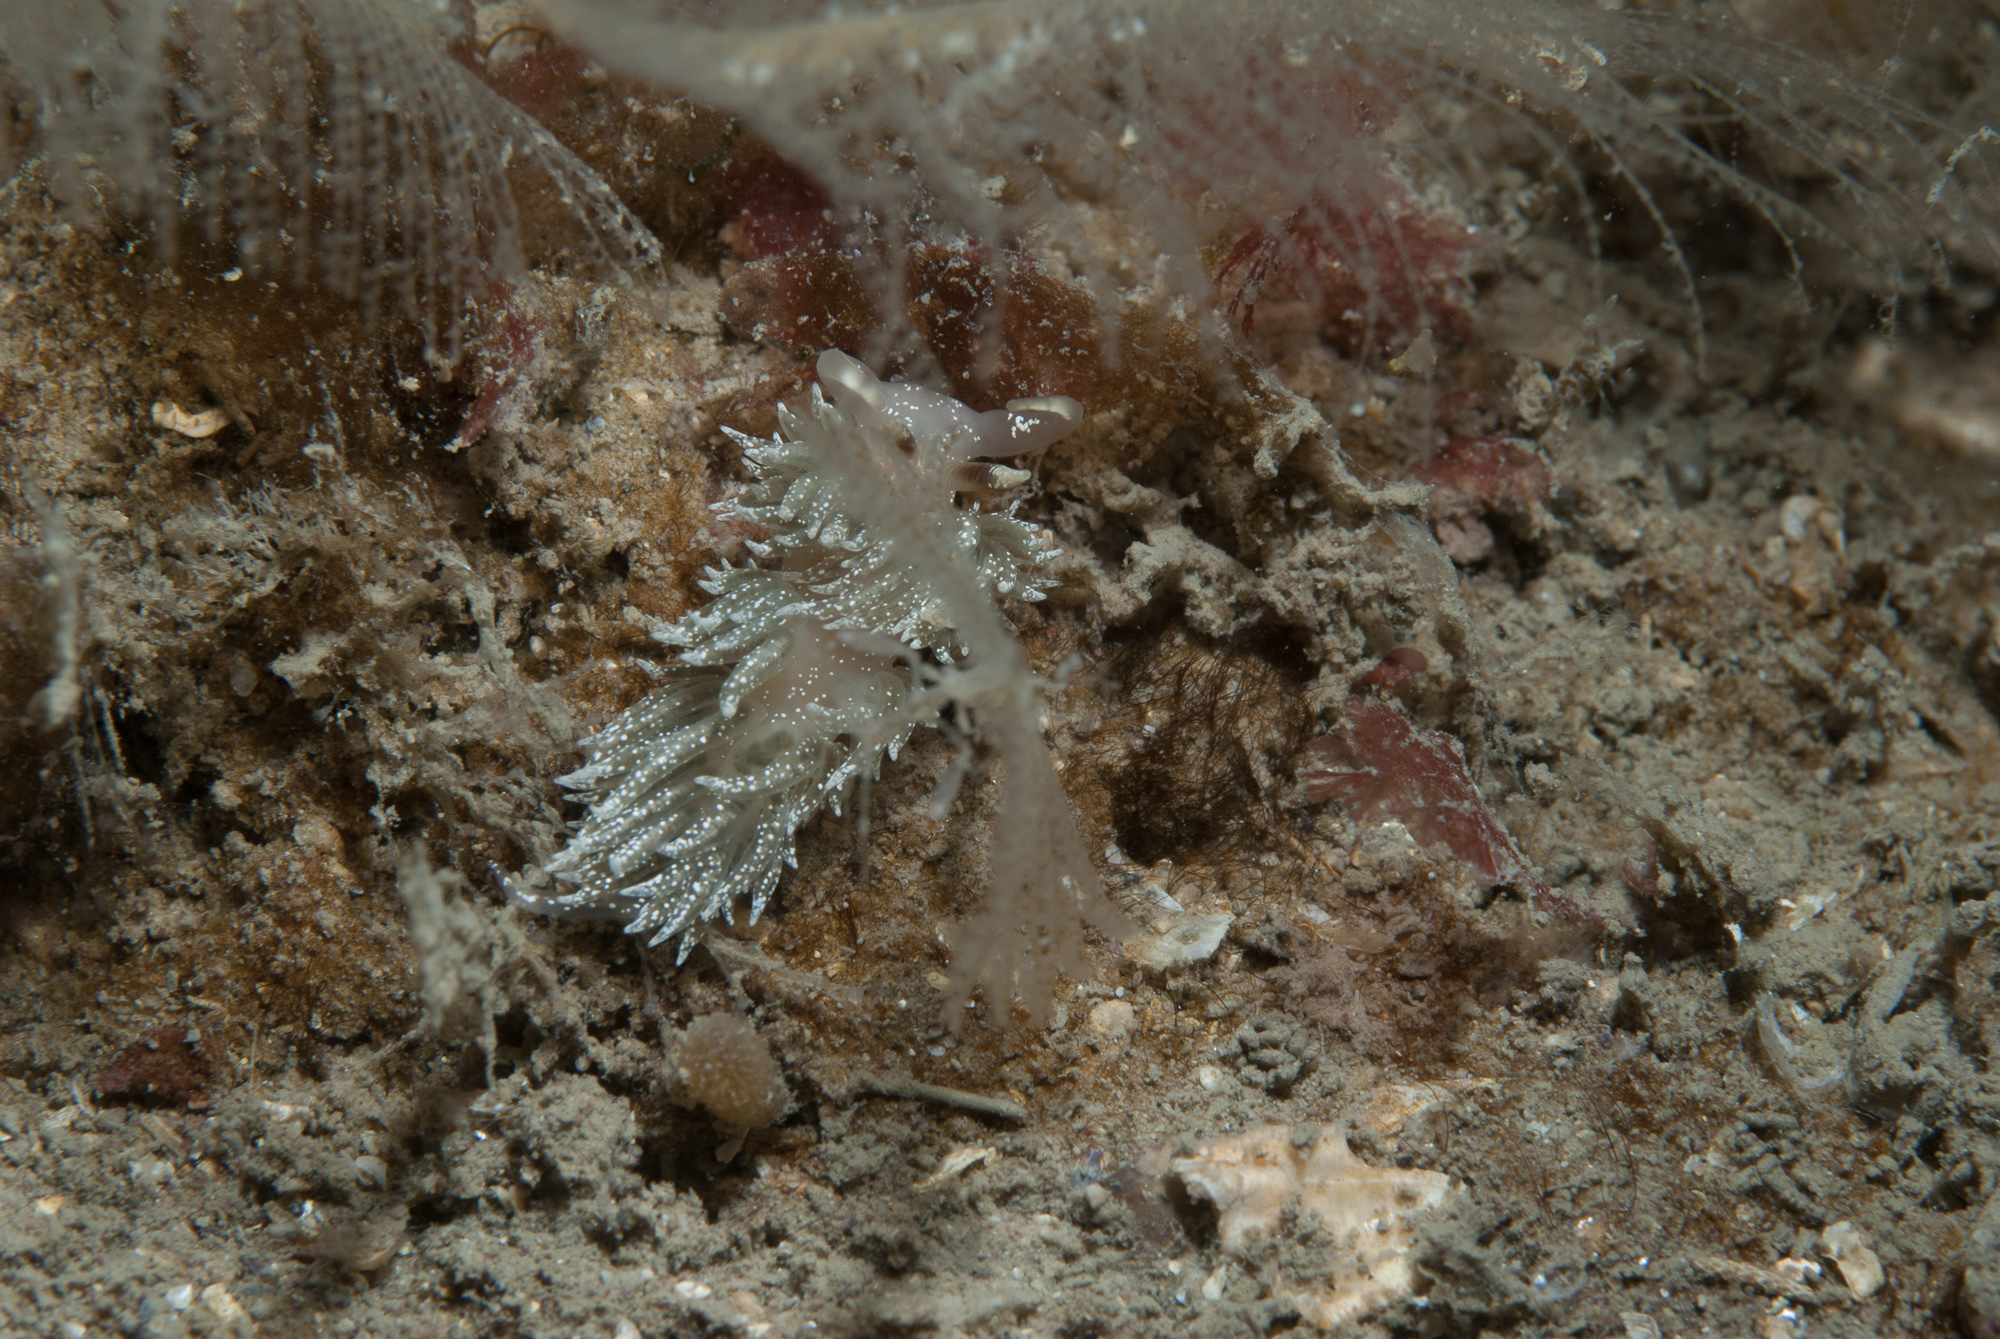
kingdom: Animalia
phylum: Mollusca
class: Gastropoda
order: Nudibranchia
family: Facelinidae
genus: Facelina
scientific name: Facelina annulicornis
